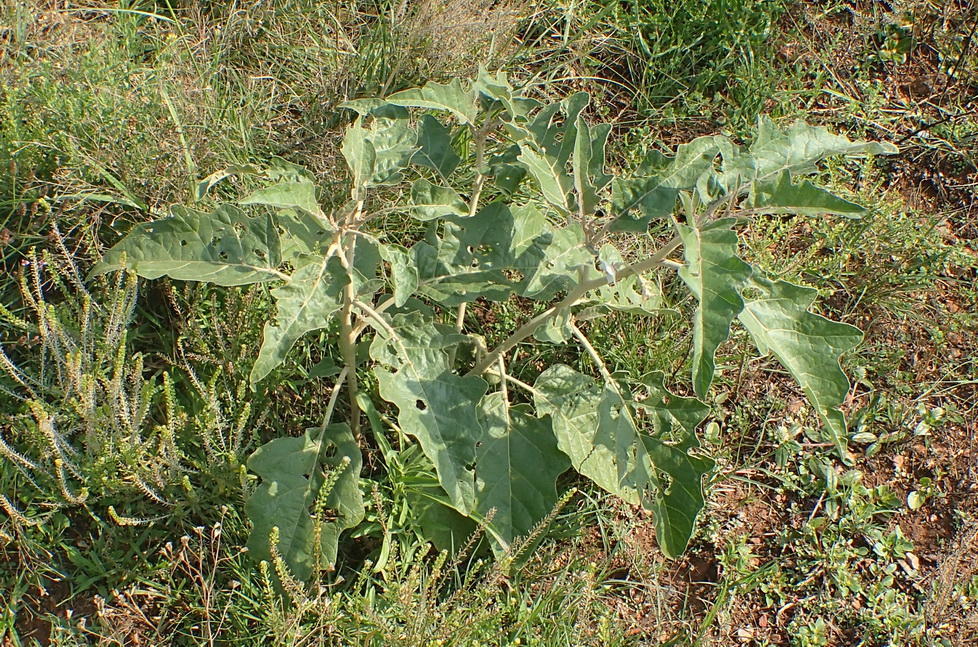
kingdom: Plantae
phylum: Tracheophyta
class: Magnoliopsida
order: Solanales
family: Solanaceae
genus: Solanum
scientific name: Solanum lichtensteinii
